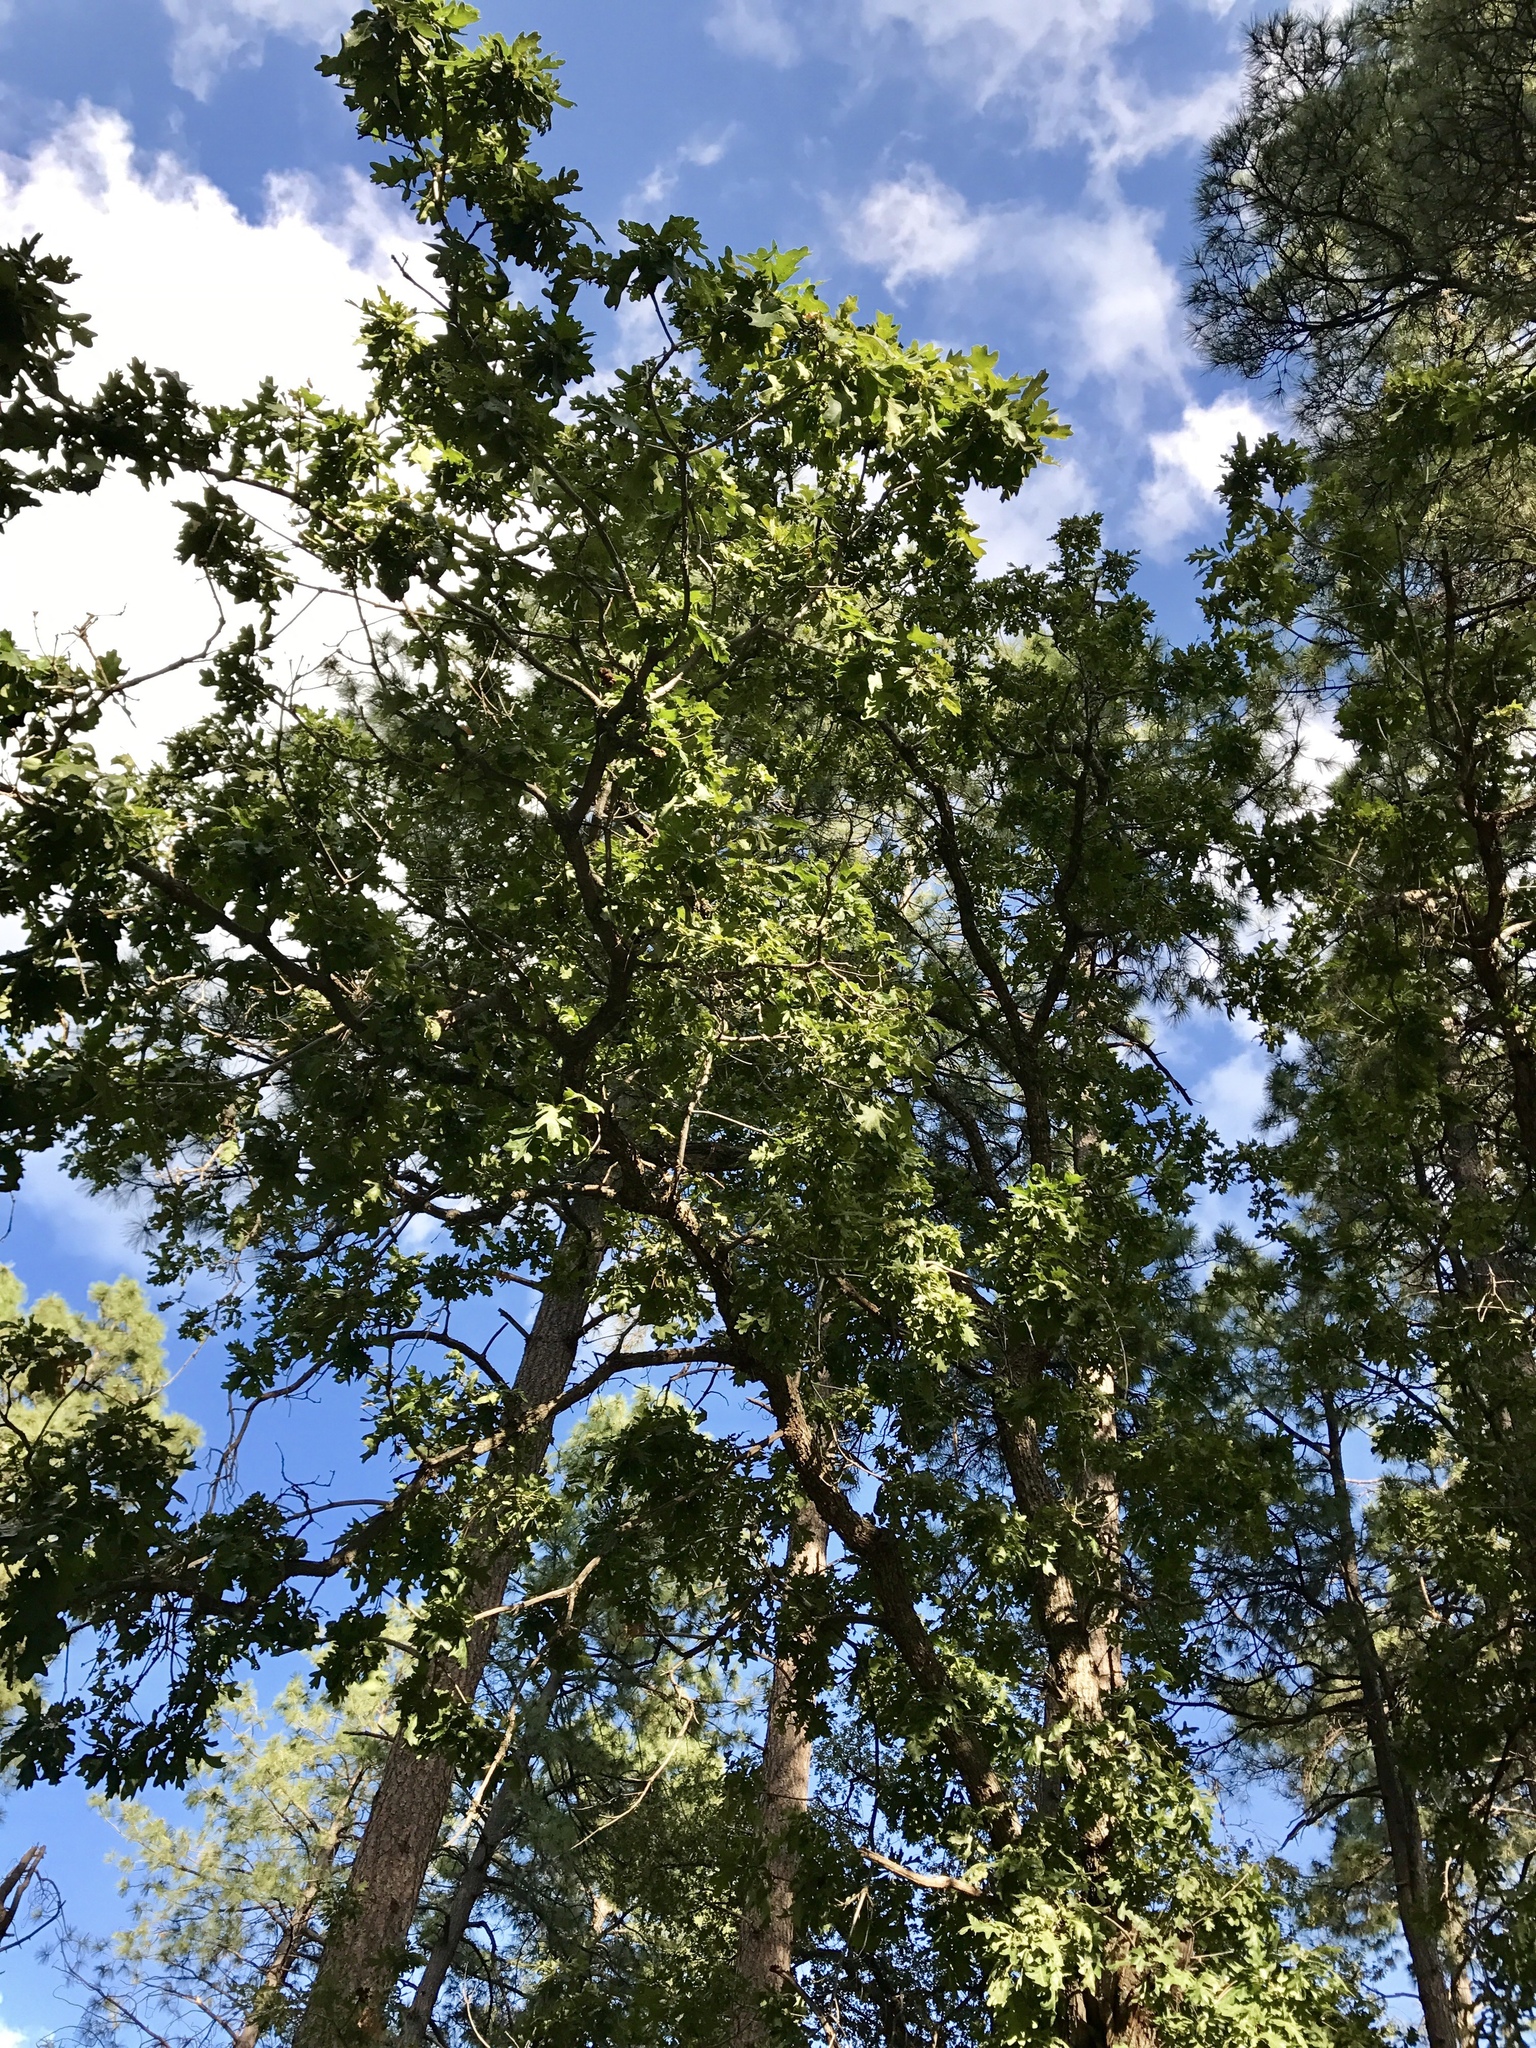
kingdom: Plantae
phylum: Tracheophyta
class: Magnoliopsida
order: Fagales
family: Fagaceae
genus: Quercus
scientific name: Quercus gambelii
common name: Gambel oak
